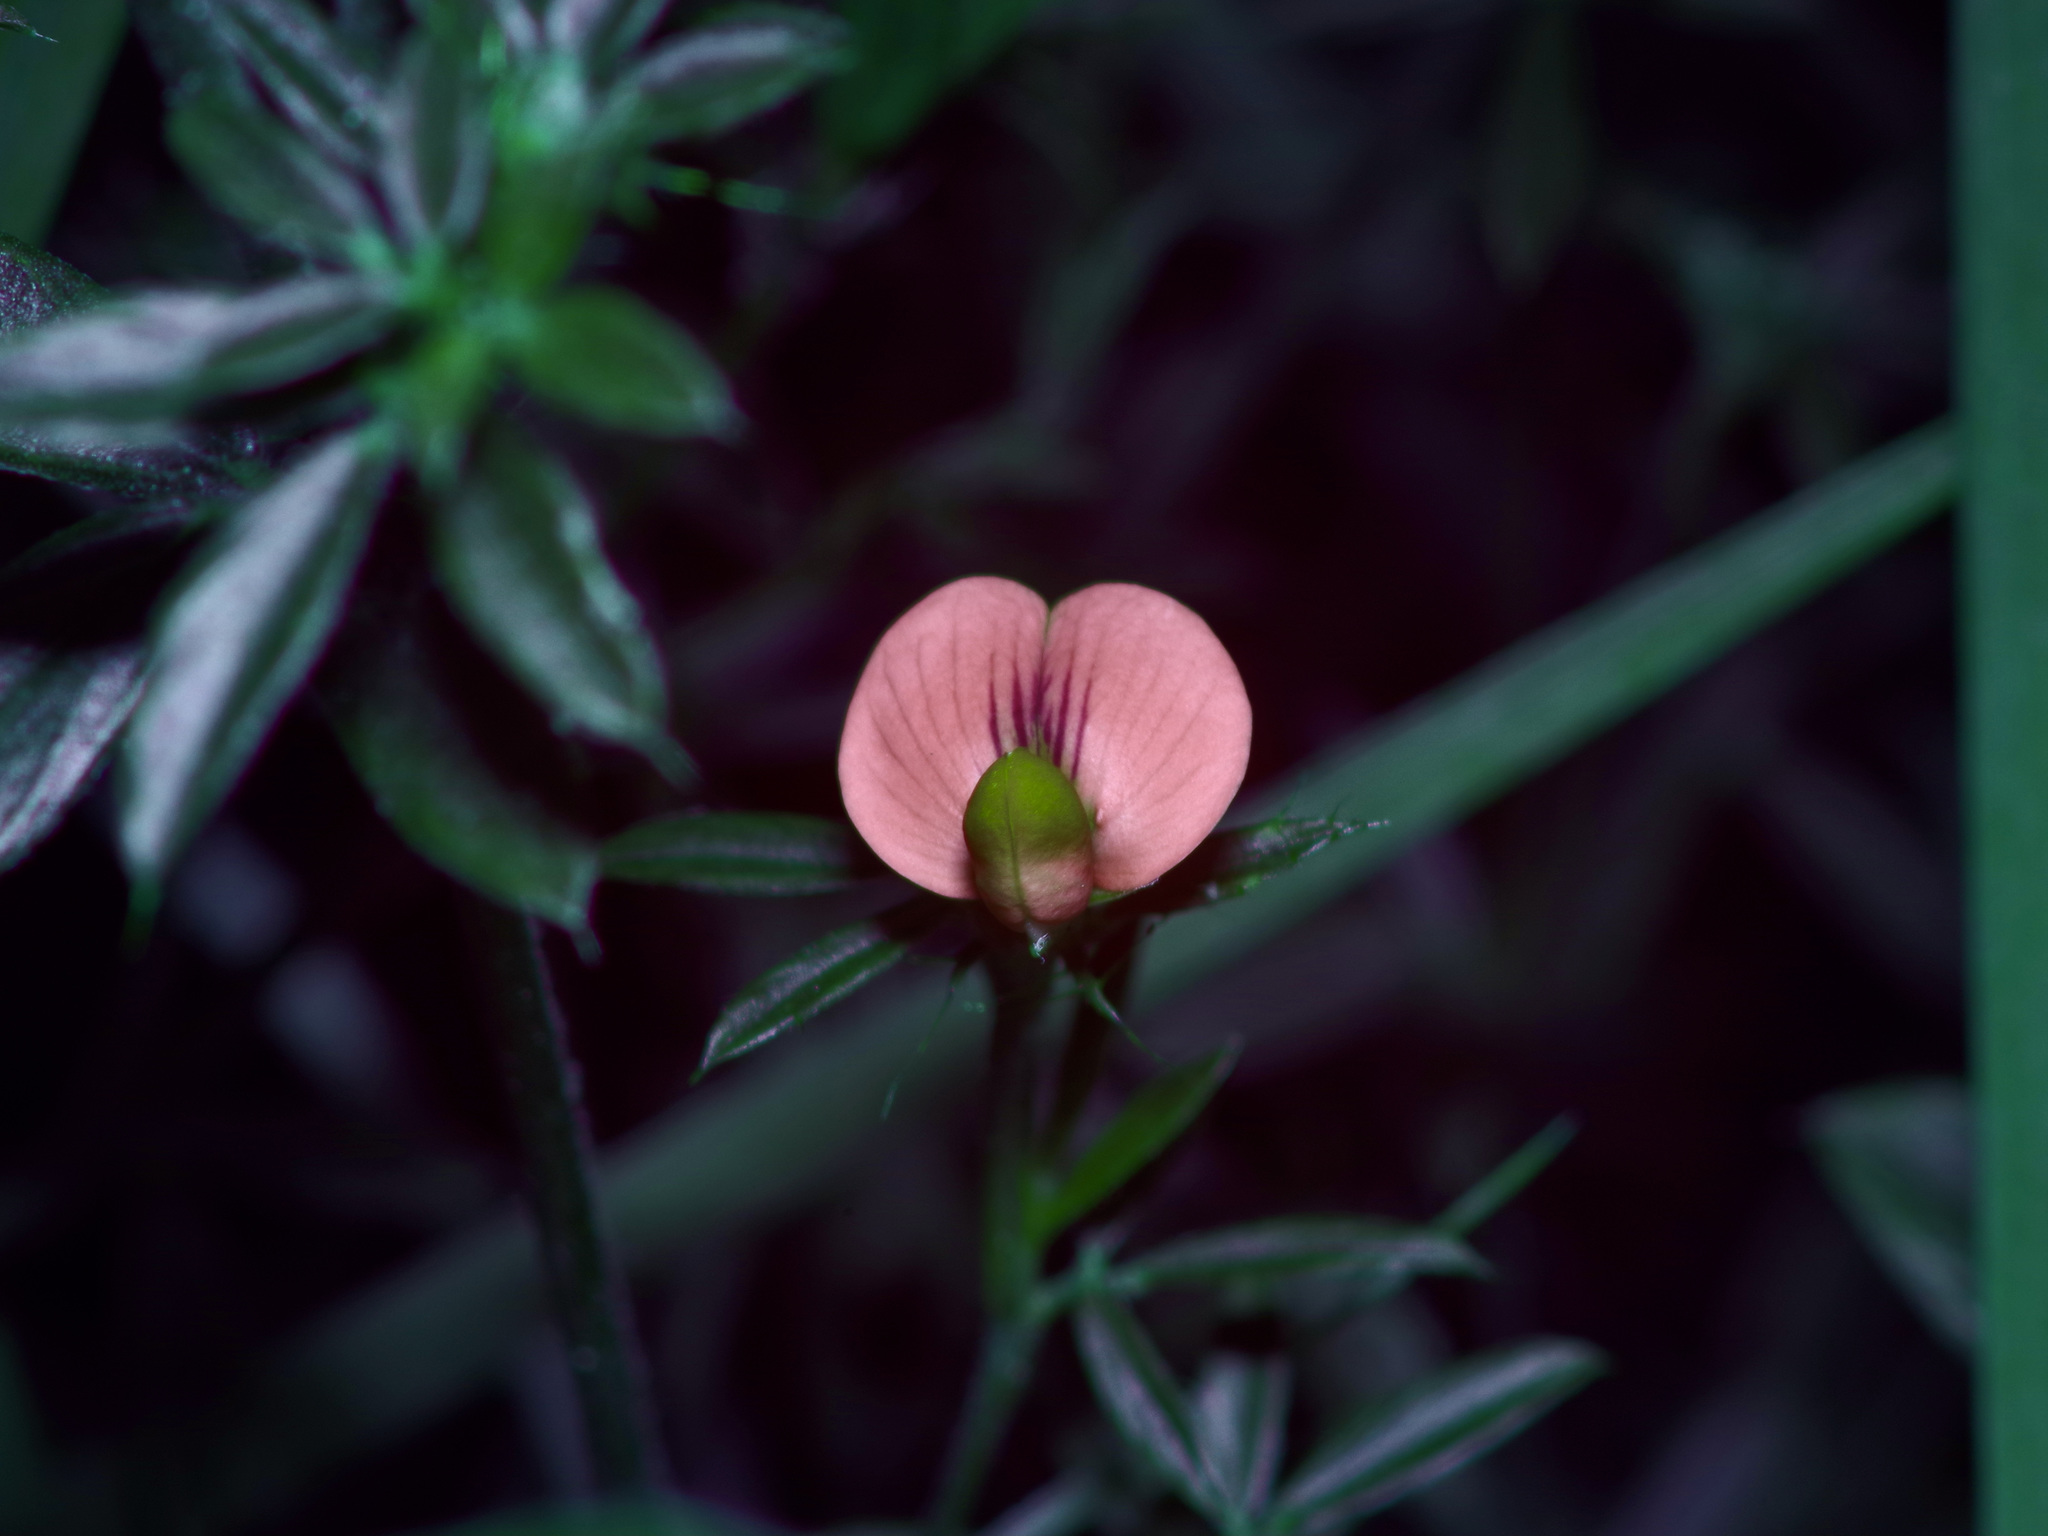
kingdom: Plantae
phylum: Tracheophyta
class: Magnoliopsida
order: Fabales
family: Fabaceae
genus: Stylosanthes
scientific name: Stylosanthes biflora
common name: Two-flower pencil-flower
